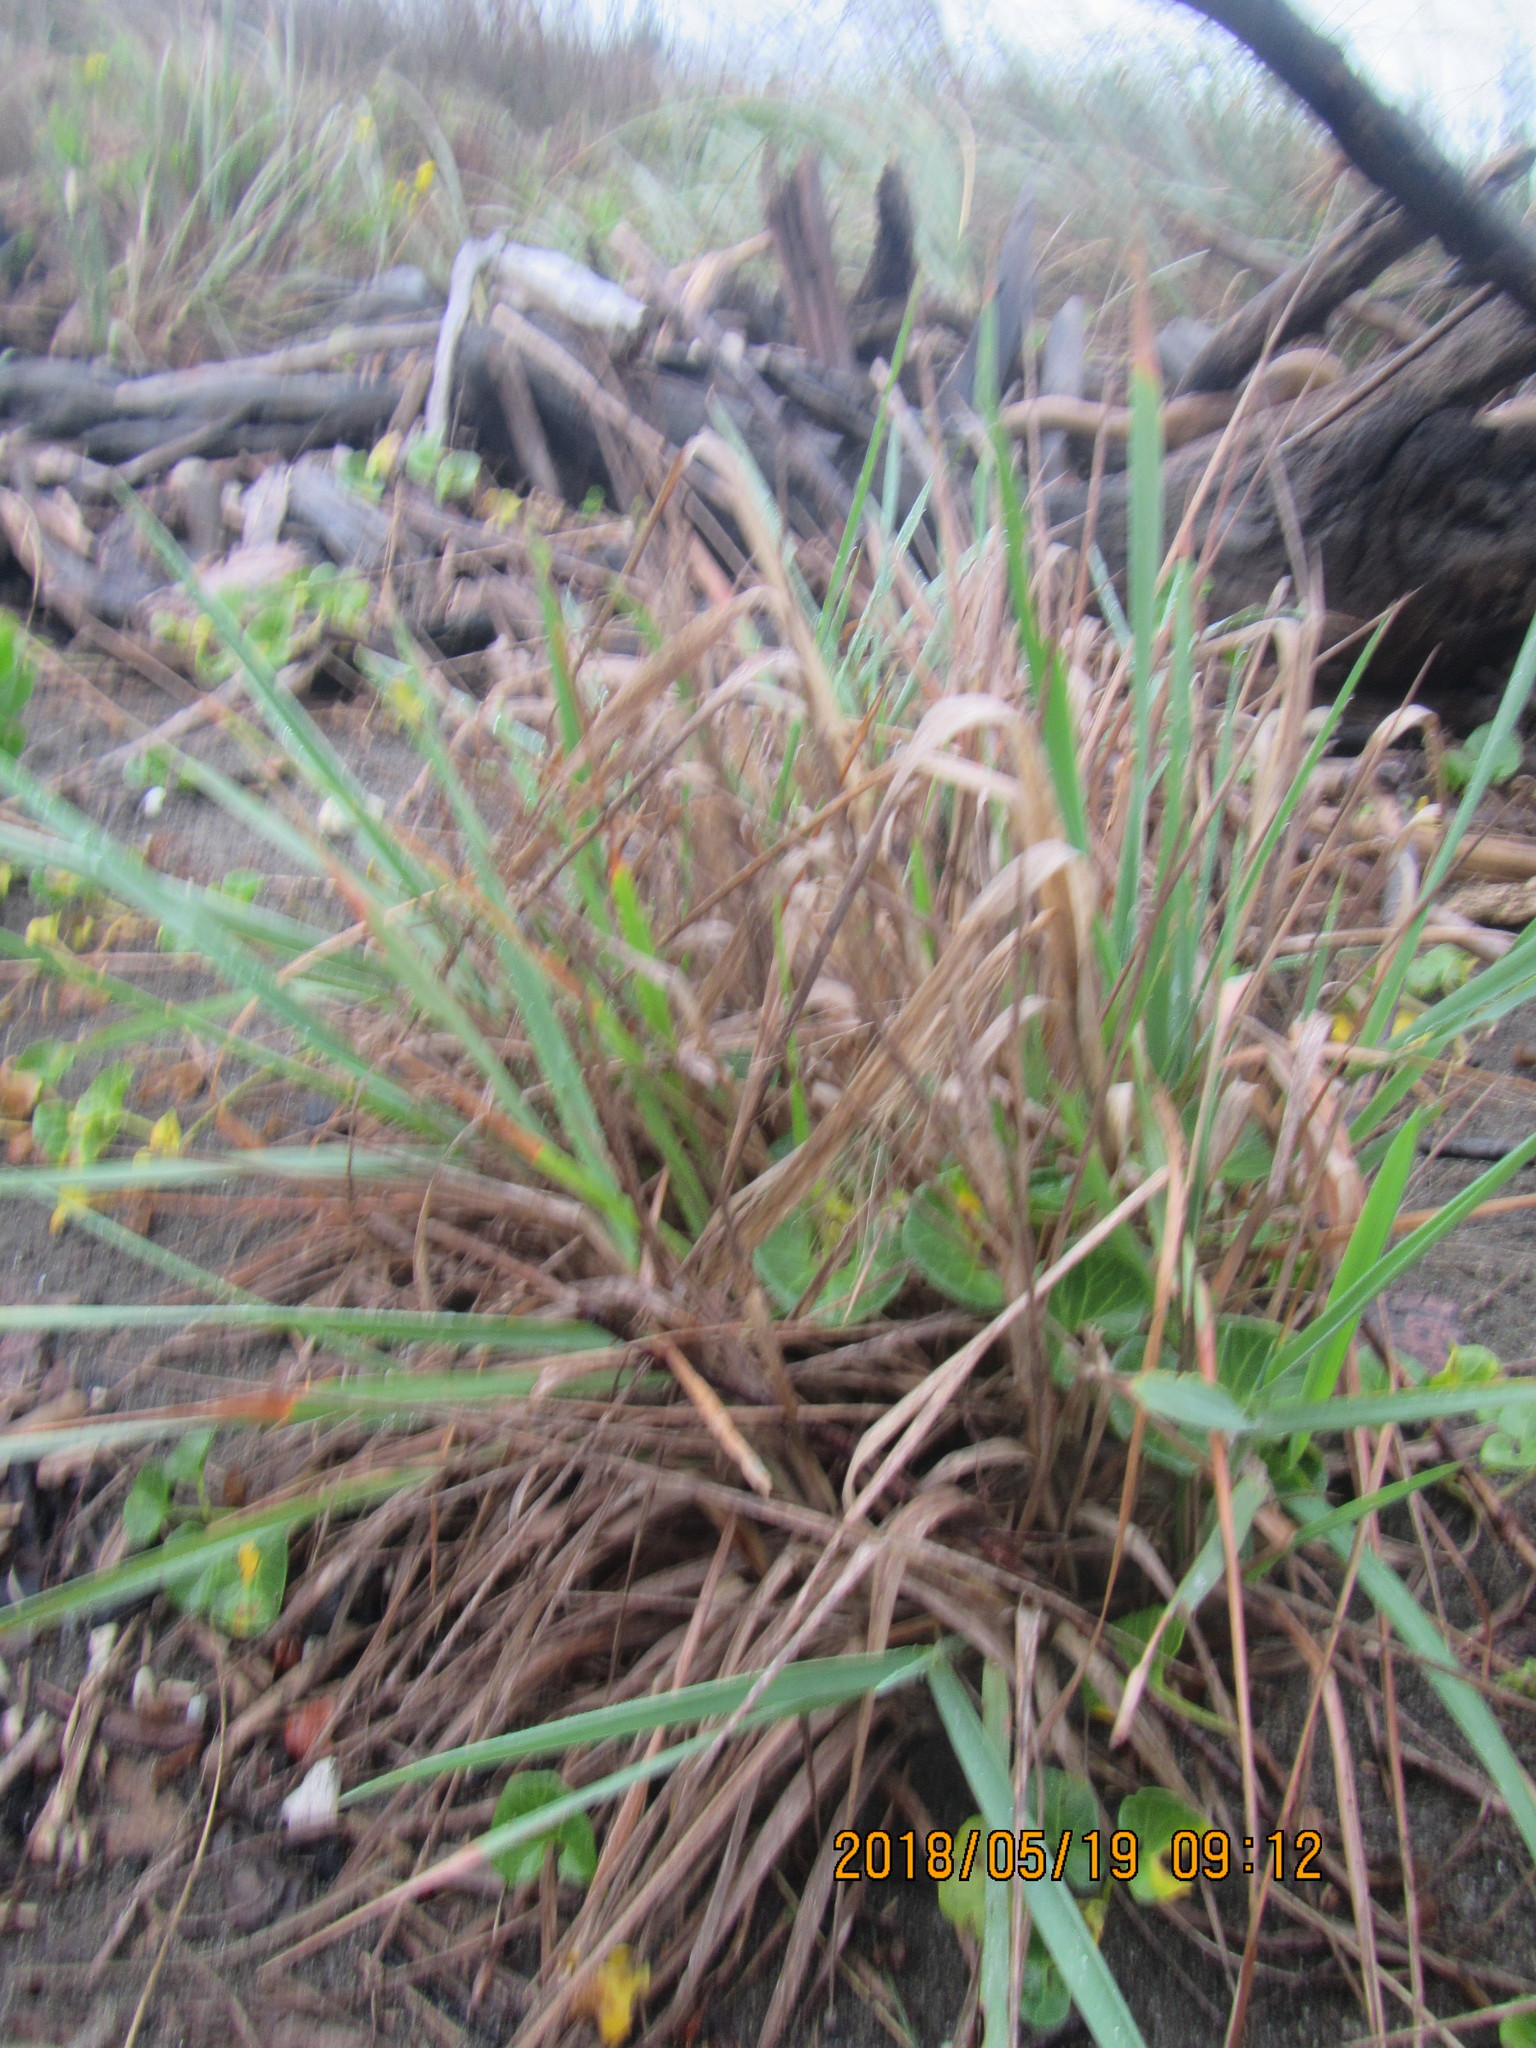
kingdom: Plantae
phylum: Tracheophyta
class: Liliopsida
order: Poales
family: Poaceae
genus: Lachnagrostis
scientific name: Lachnagrostis billardierei
